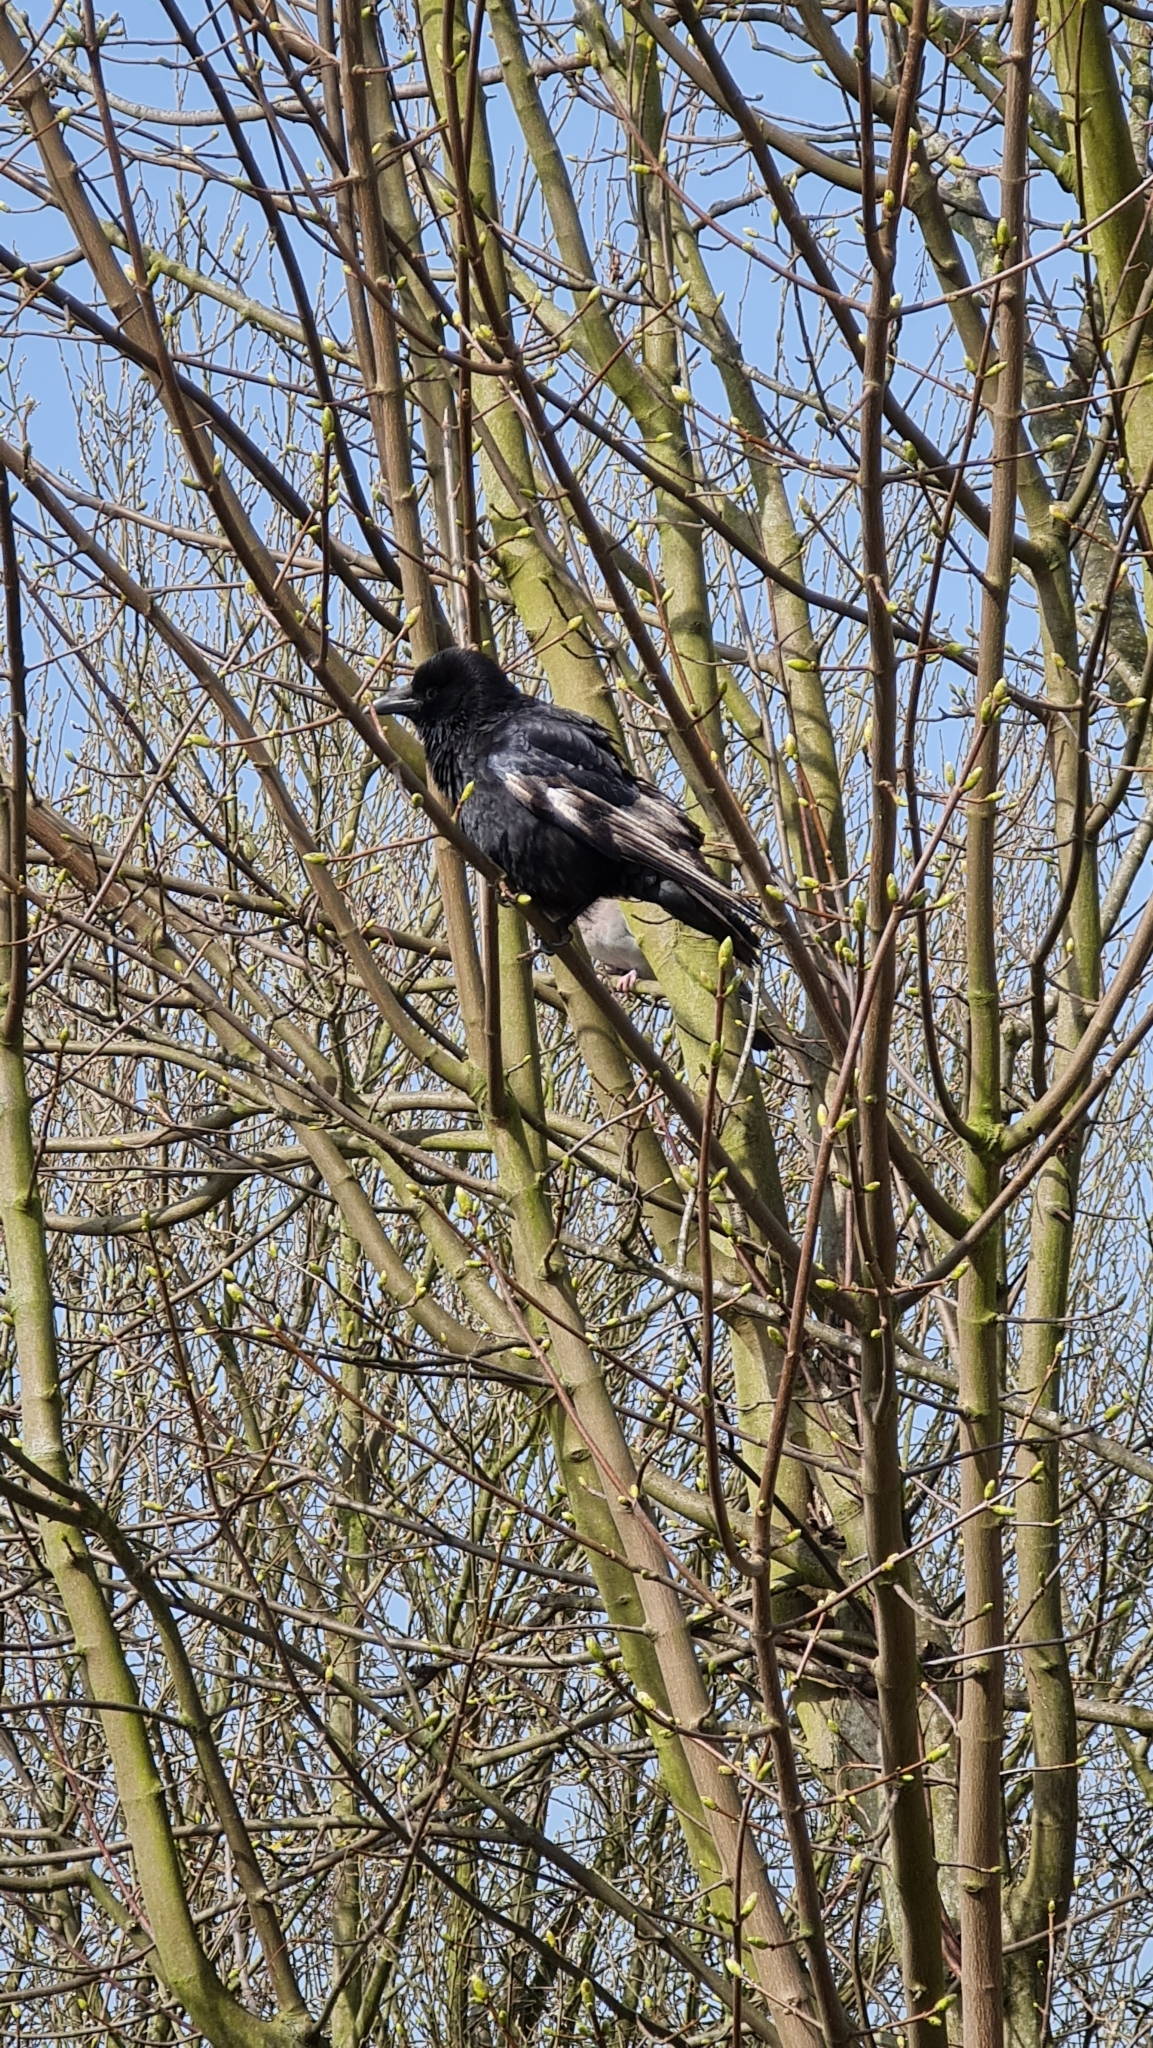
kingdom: Animalia
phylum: Chordata
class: Aves
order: Passeriformes
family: Corvidae
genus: Corvus
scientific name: Corvus corone
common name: Carrion crow
